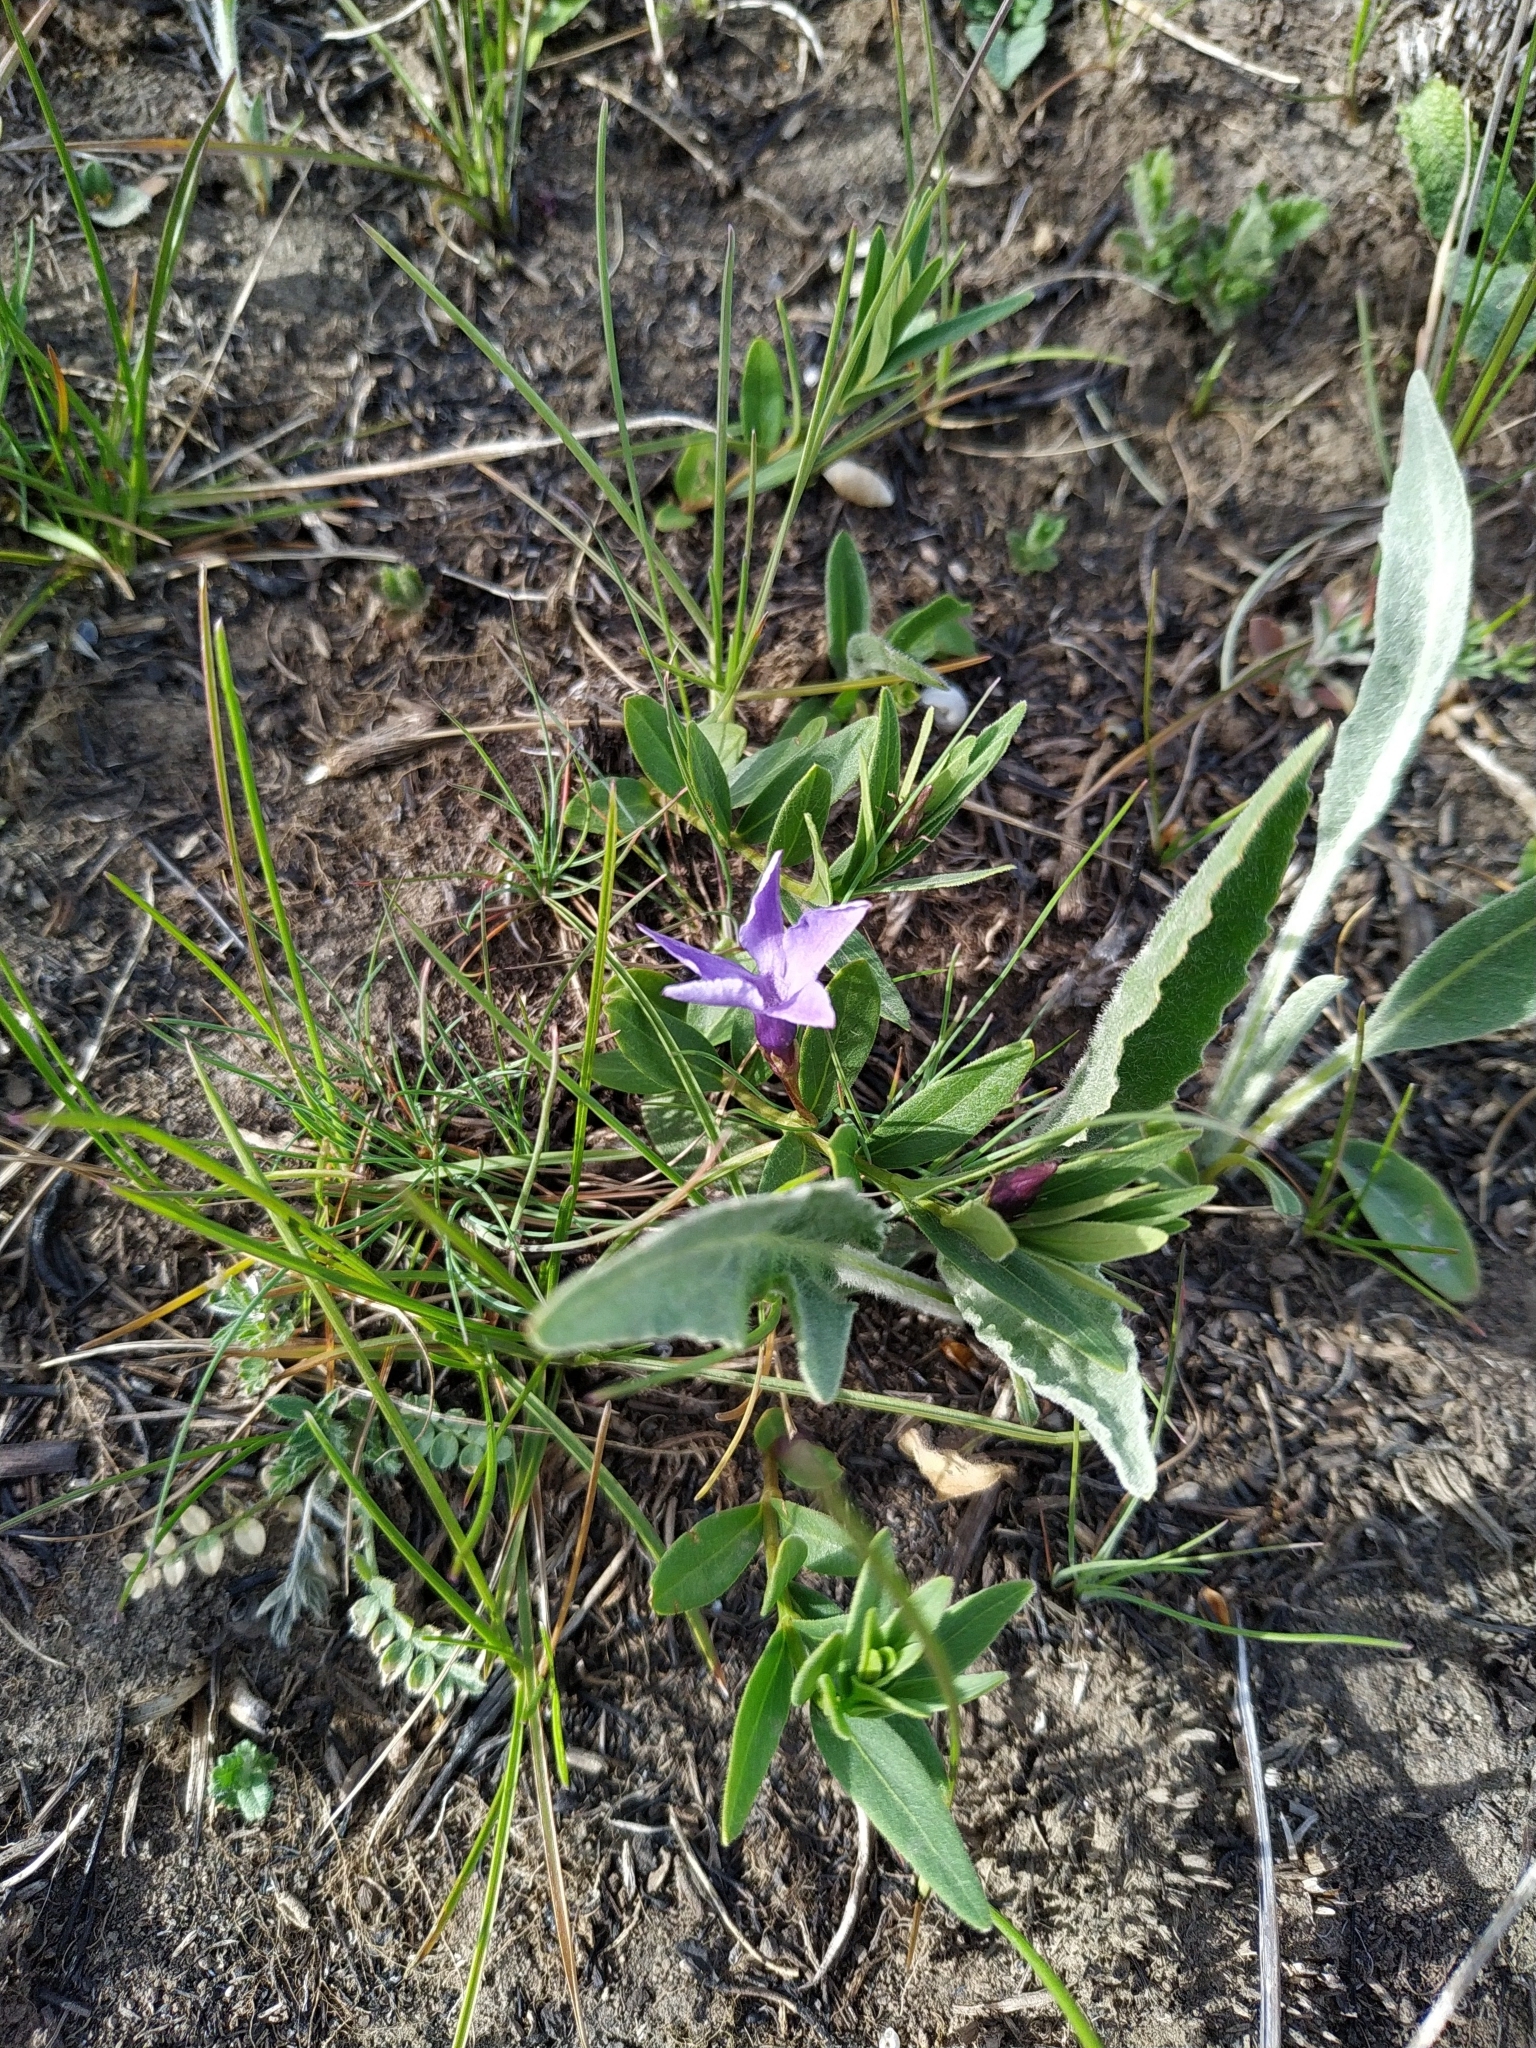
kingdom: Plantae
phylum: Tracheophyta
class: Magnoliopsida
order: Gentianales
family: Apocynaceae
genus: Vinca
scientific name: Vinca herbacea
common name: Herbaceous periwinkle
